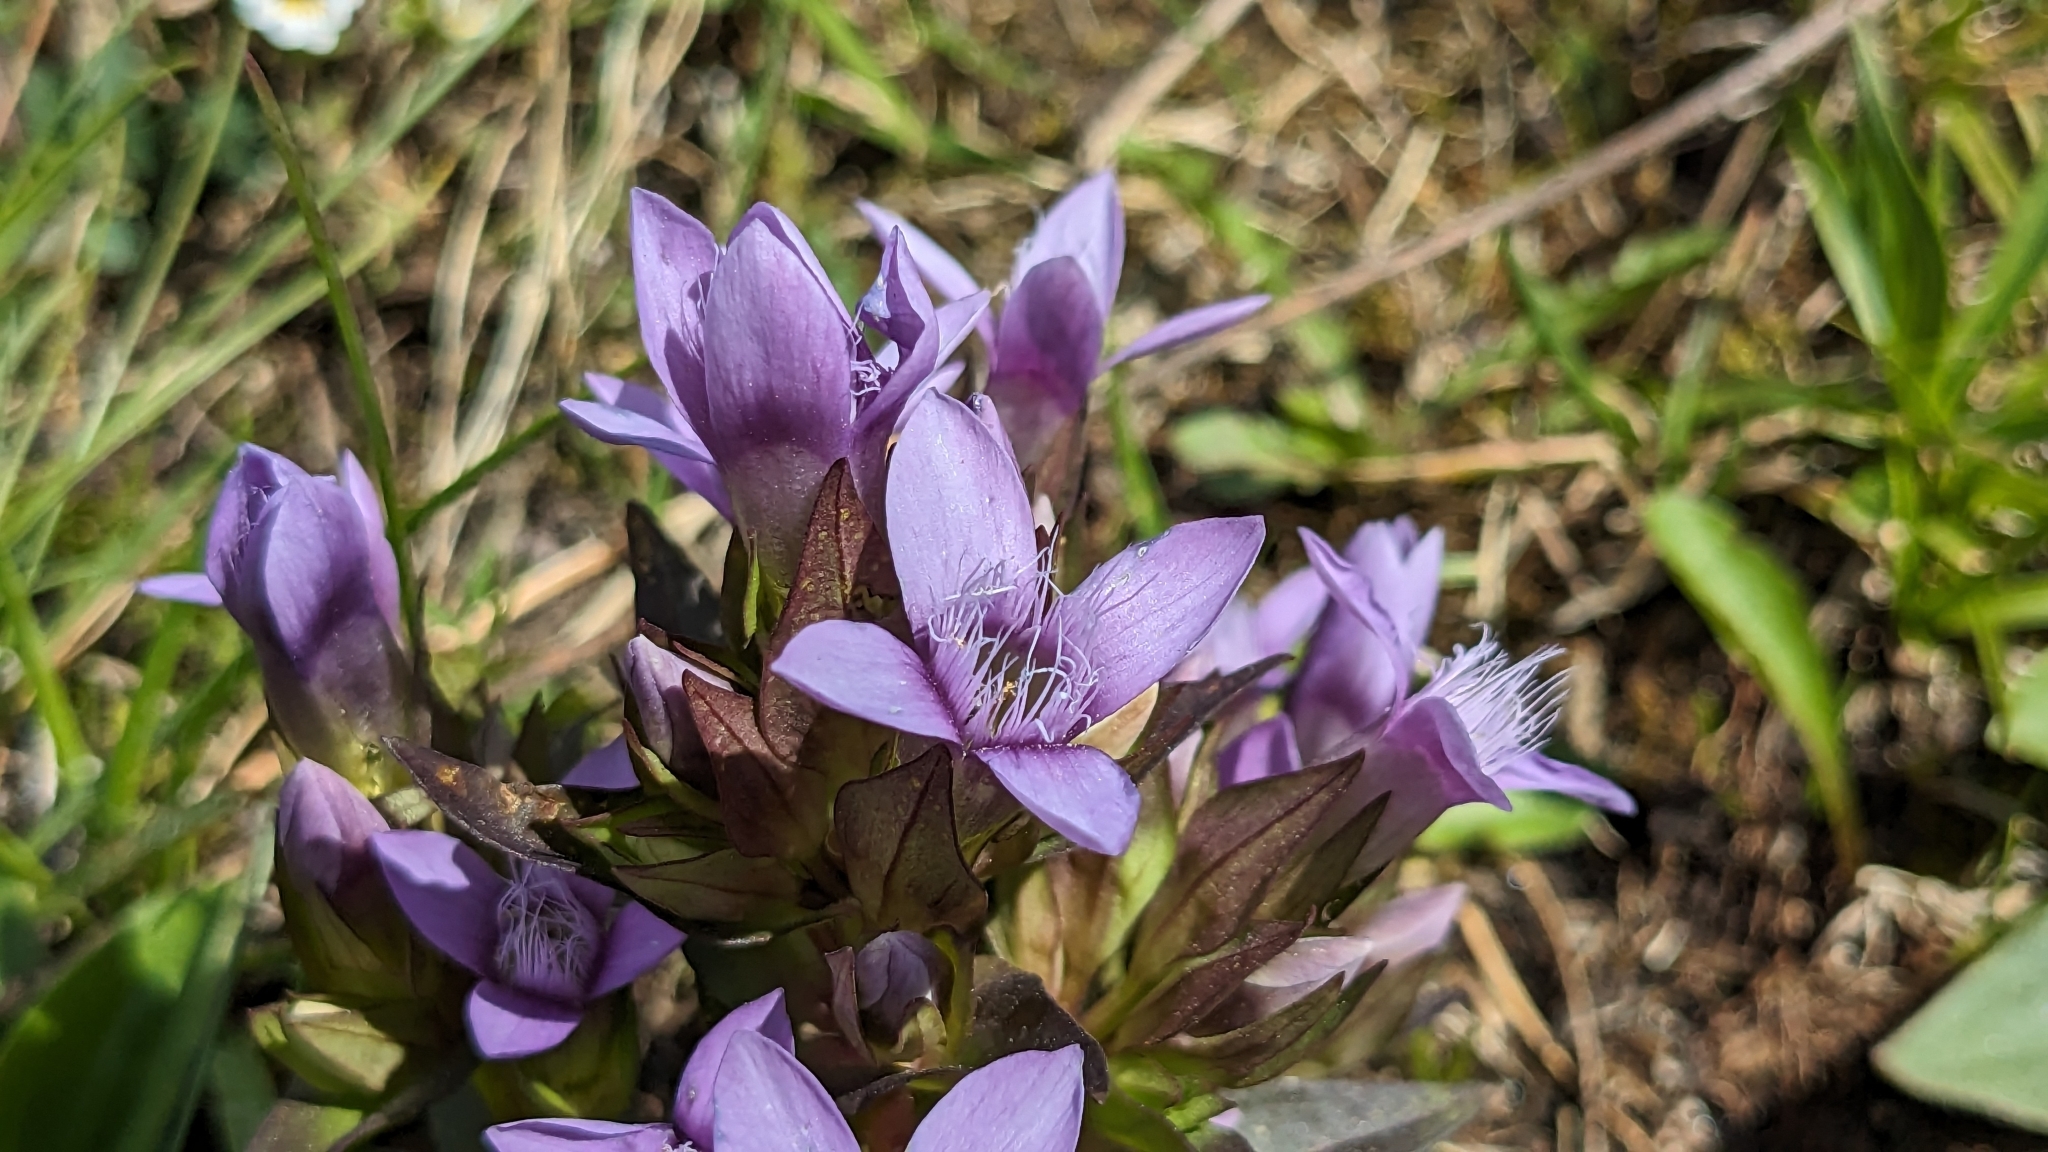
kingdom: Plantae
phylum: Tracheophyta
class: Magnoliopsida
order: Gentianales
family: Gentianaceae
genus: Gentianella
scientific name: Gentianella campestris
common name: Field gentian
